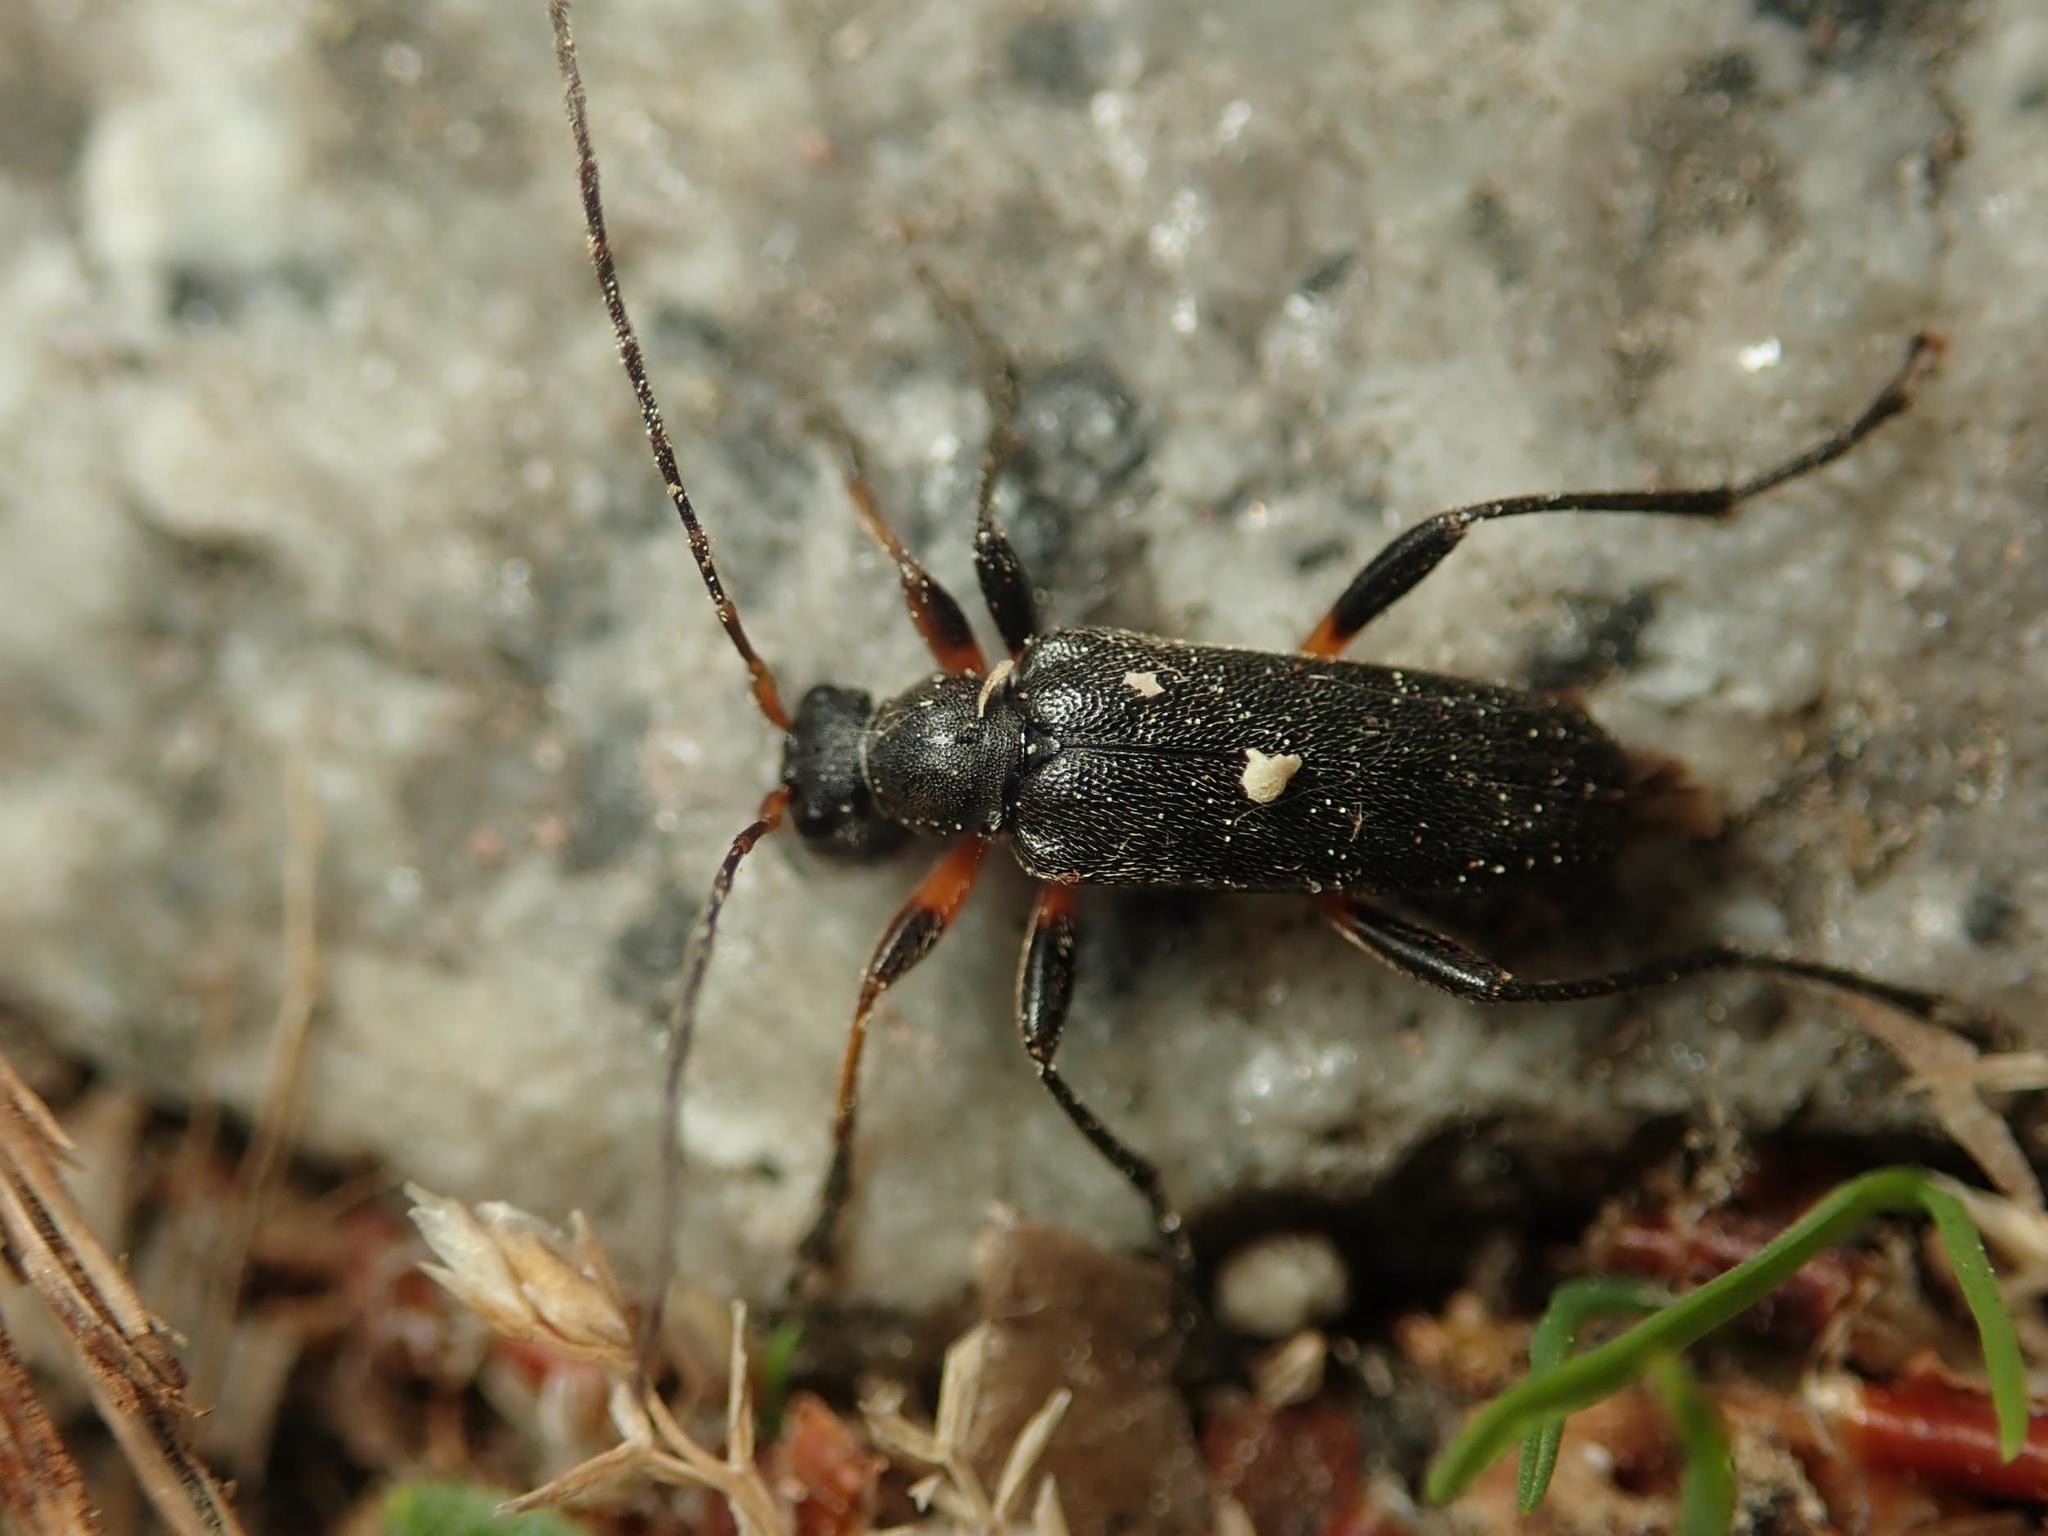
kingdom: Animalia
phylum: Arthropoda
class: Insecta
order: Coleoptera
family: Cerambycidae
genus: Cortodera
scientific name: Cortodera femorata
